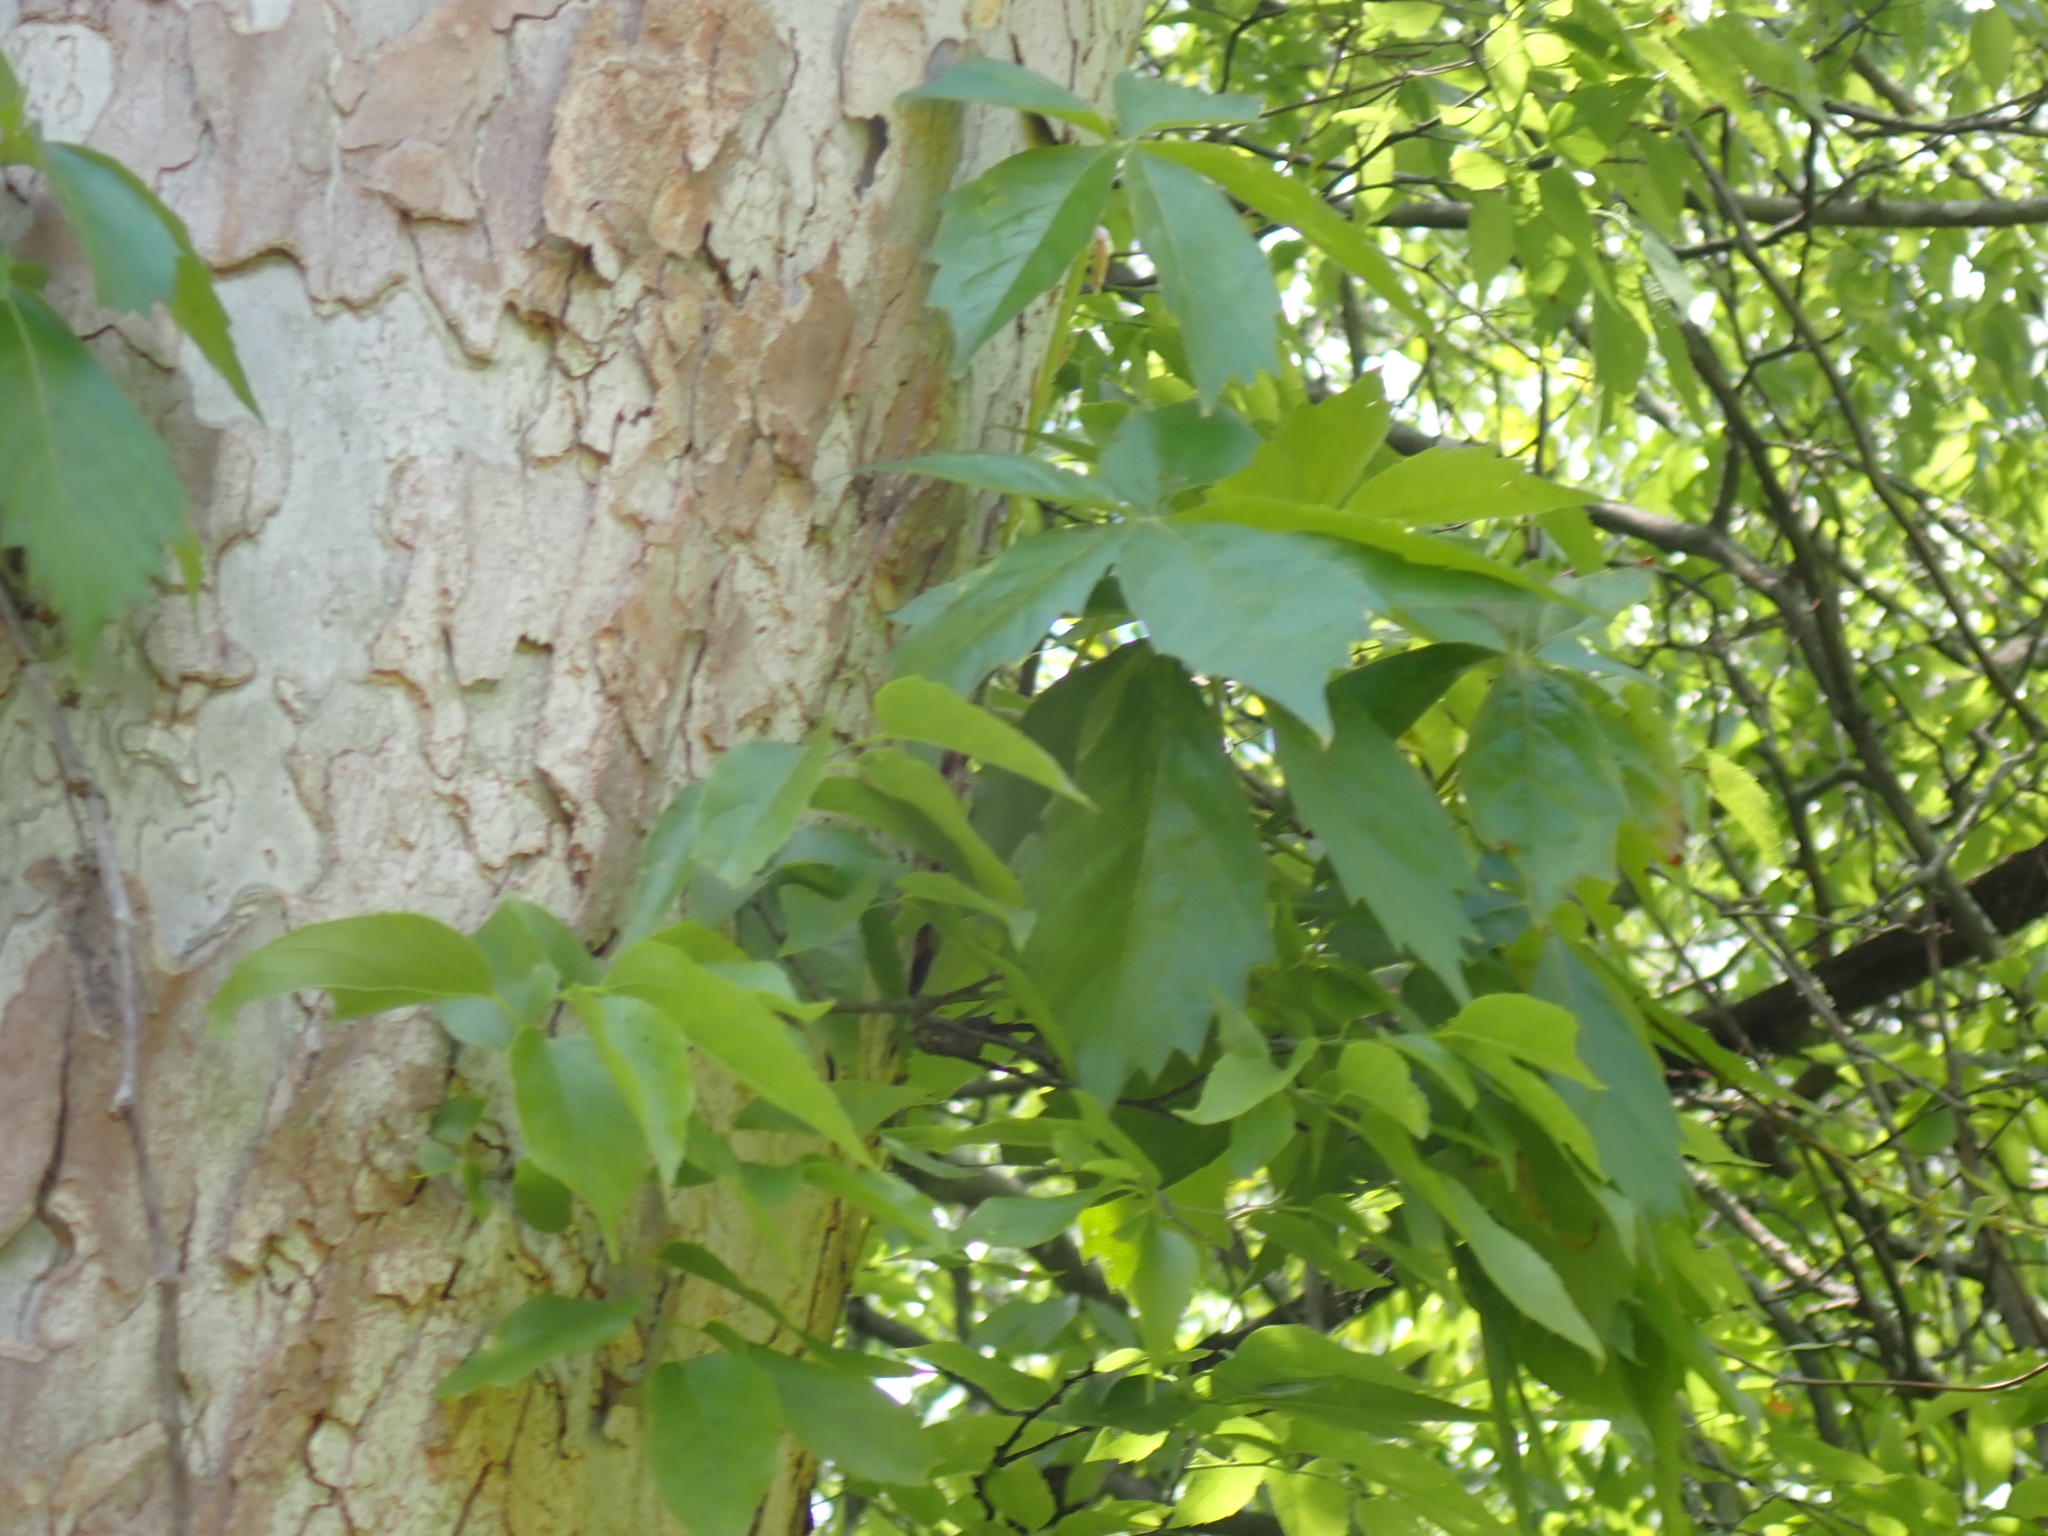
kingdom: Plantae
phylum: Tracheophyta
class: Magnoliopsida
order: Vitales
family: Vitaceae
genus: Parthenocissus
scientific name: Parthenocissus quinquefolia
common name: Virginia-creeper
